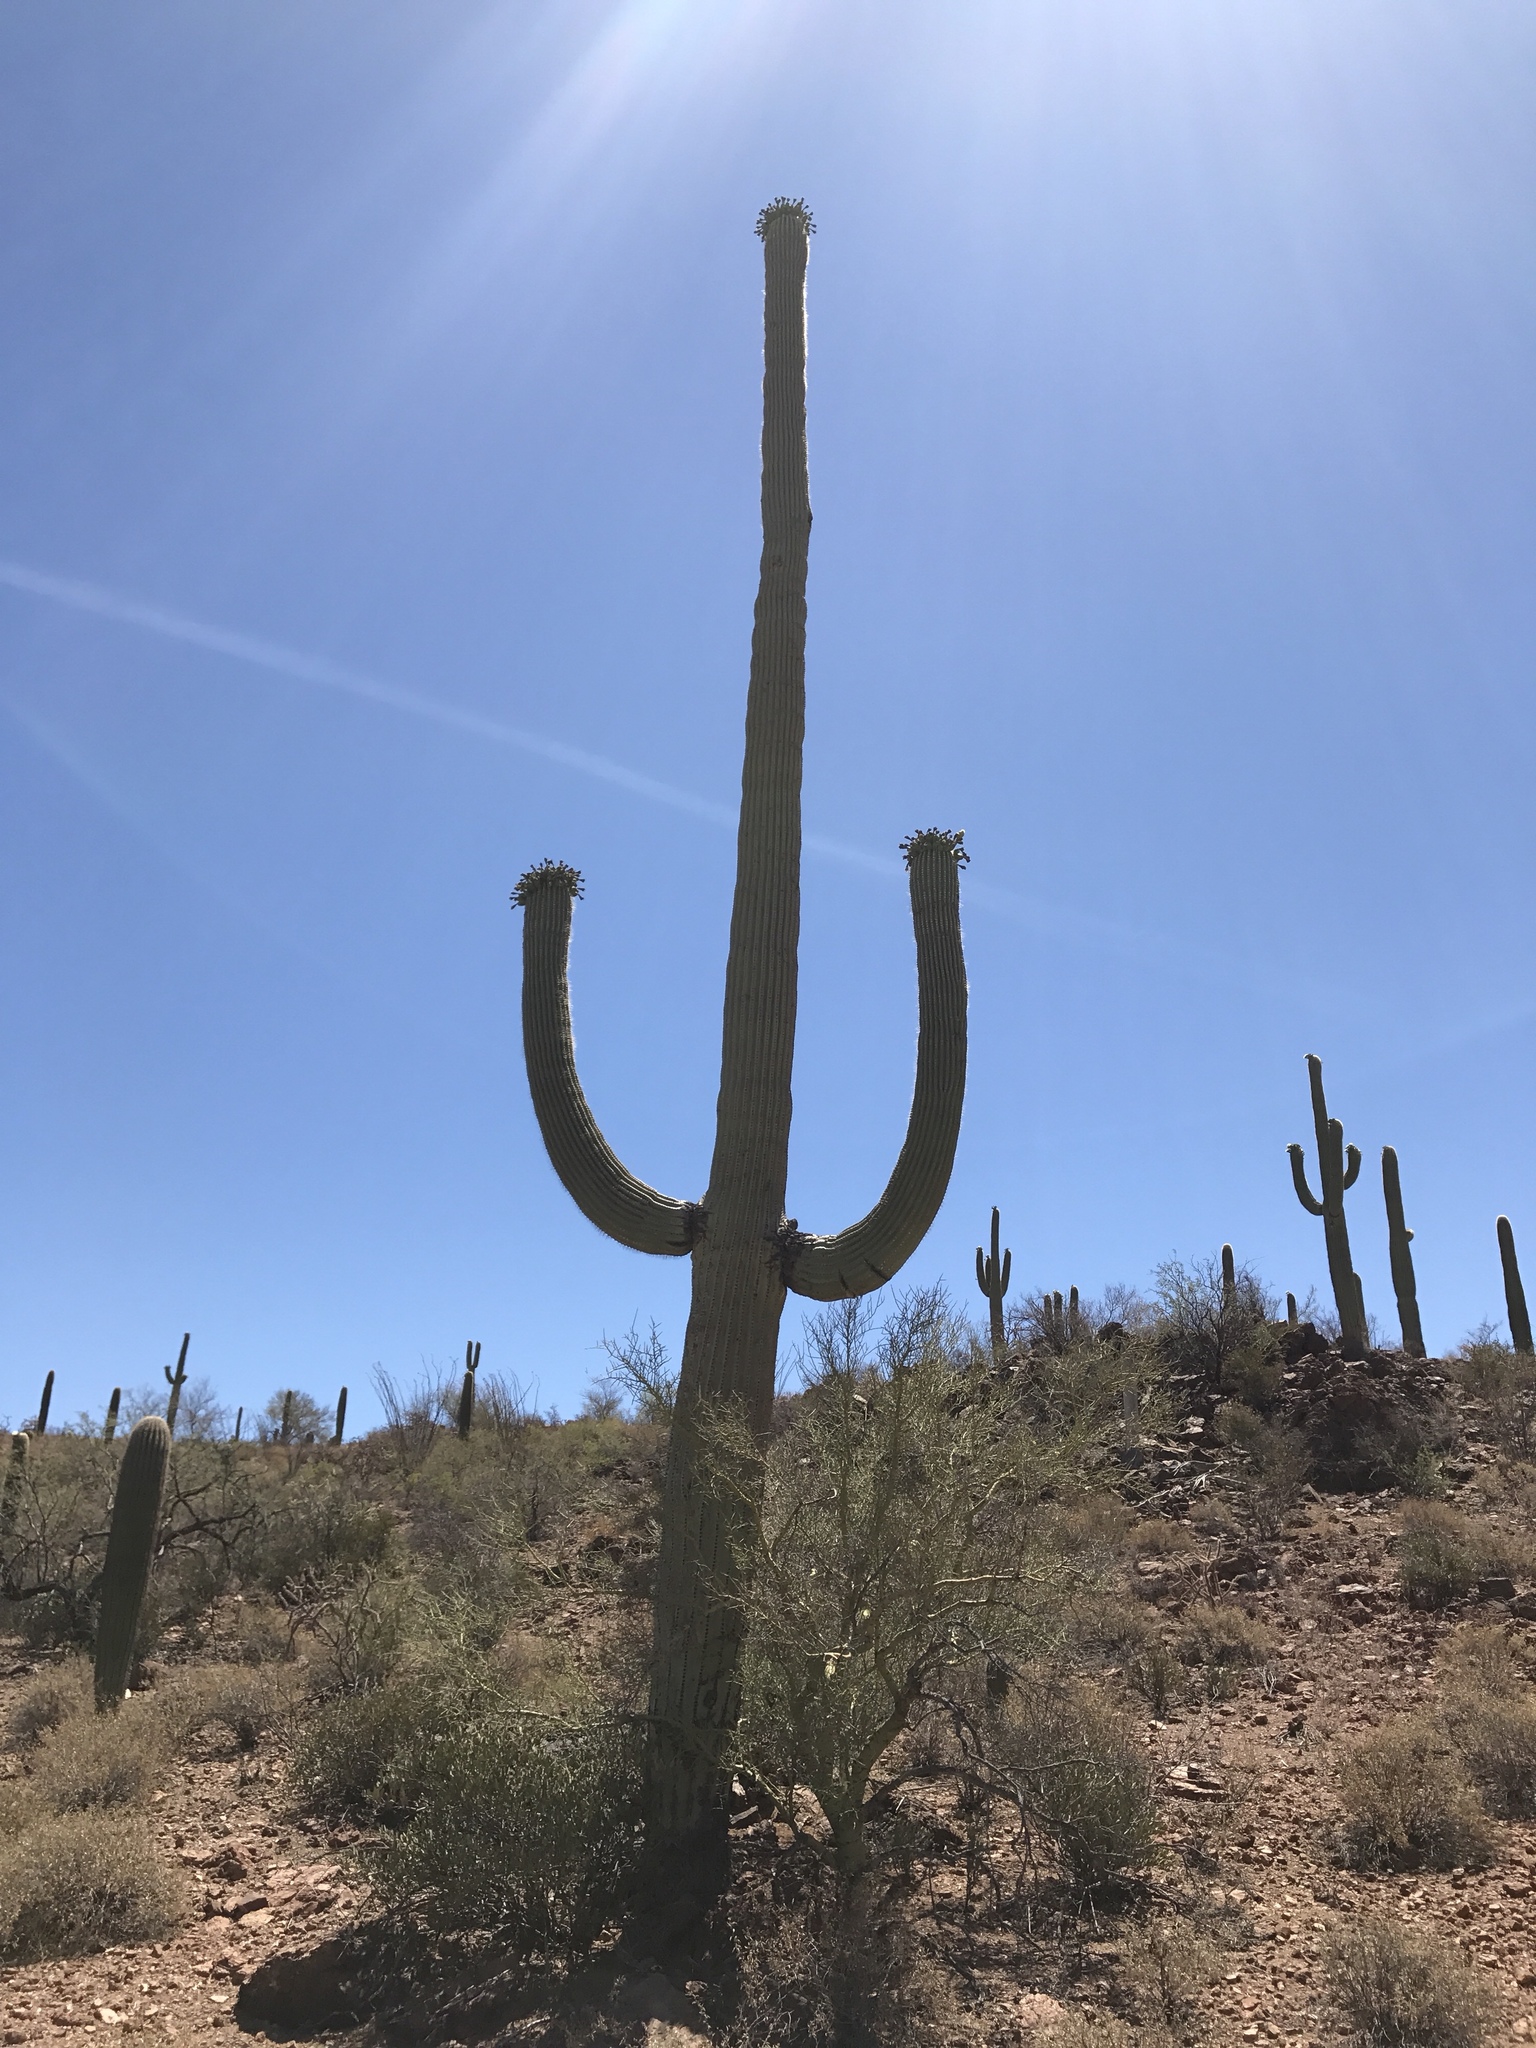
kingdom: Plantae
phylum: Tracheophyta
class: Magnoliopsida
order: Caryophyllales
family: Cactaceae
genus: Carnegiea
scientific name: Carnegiea gigantea
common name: Saguaro
